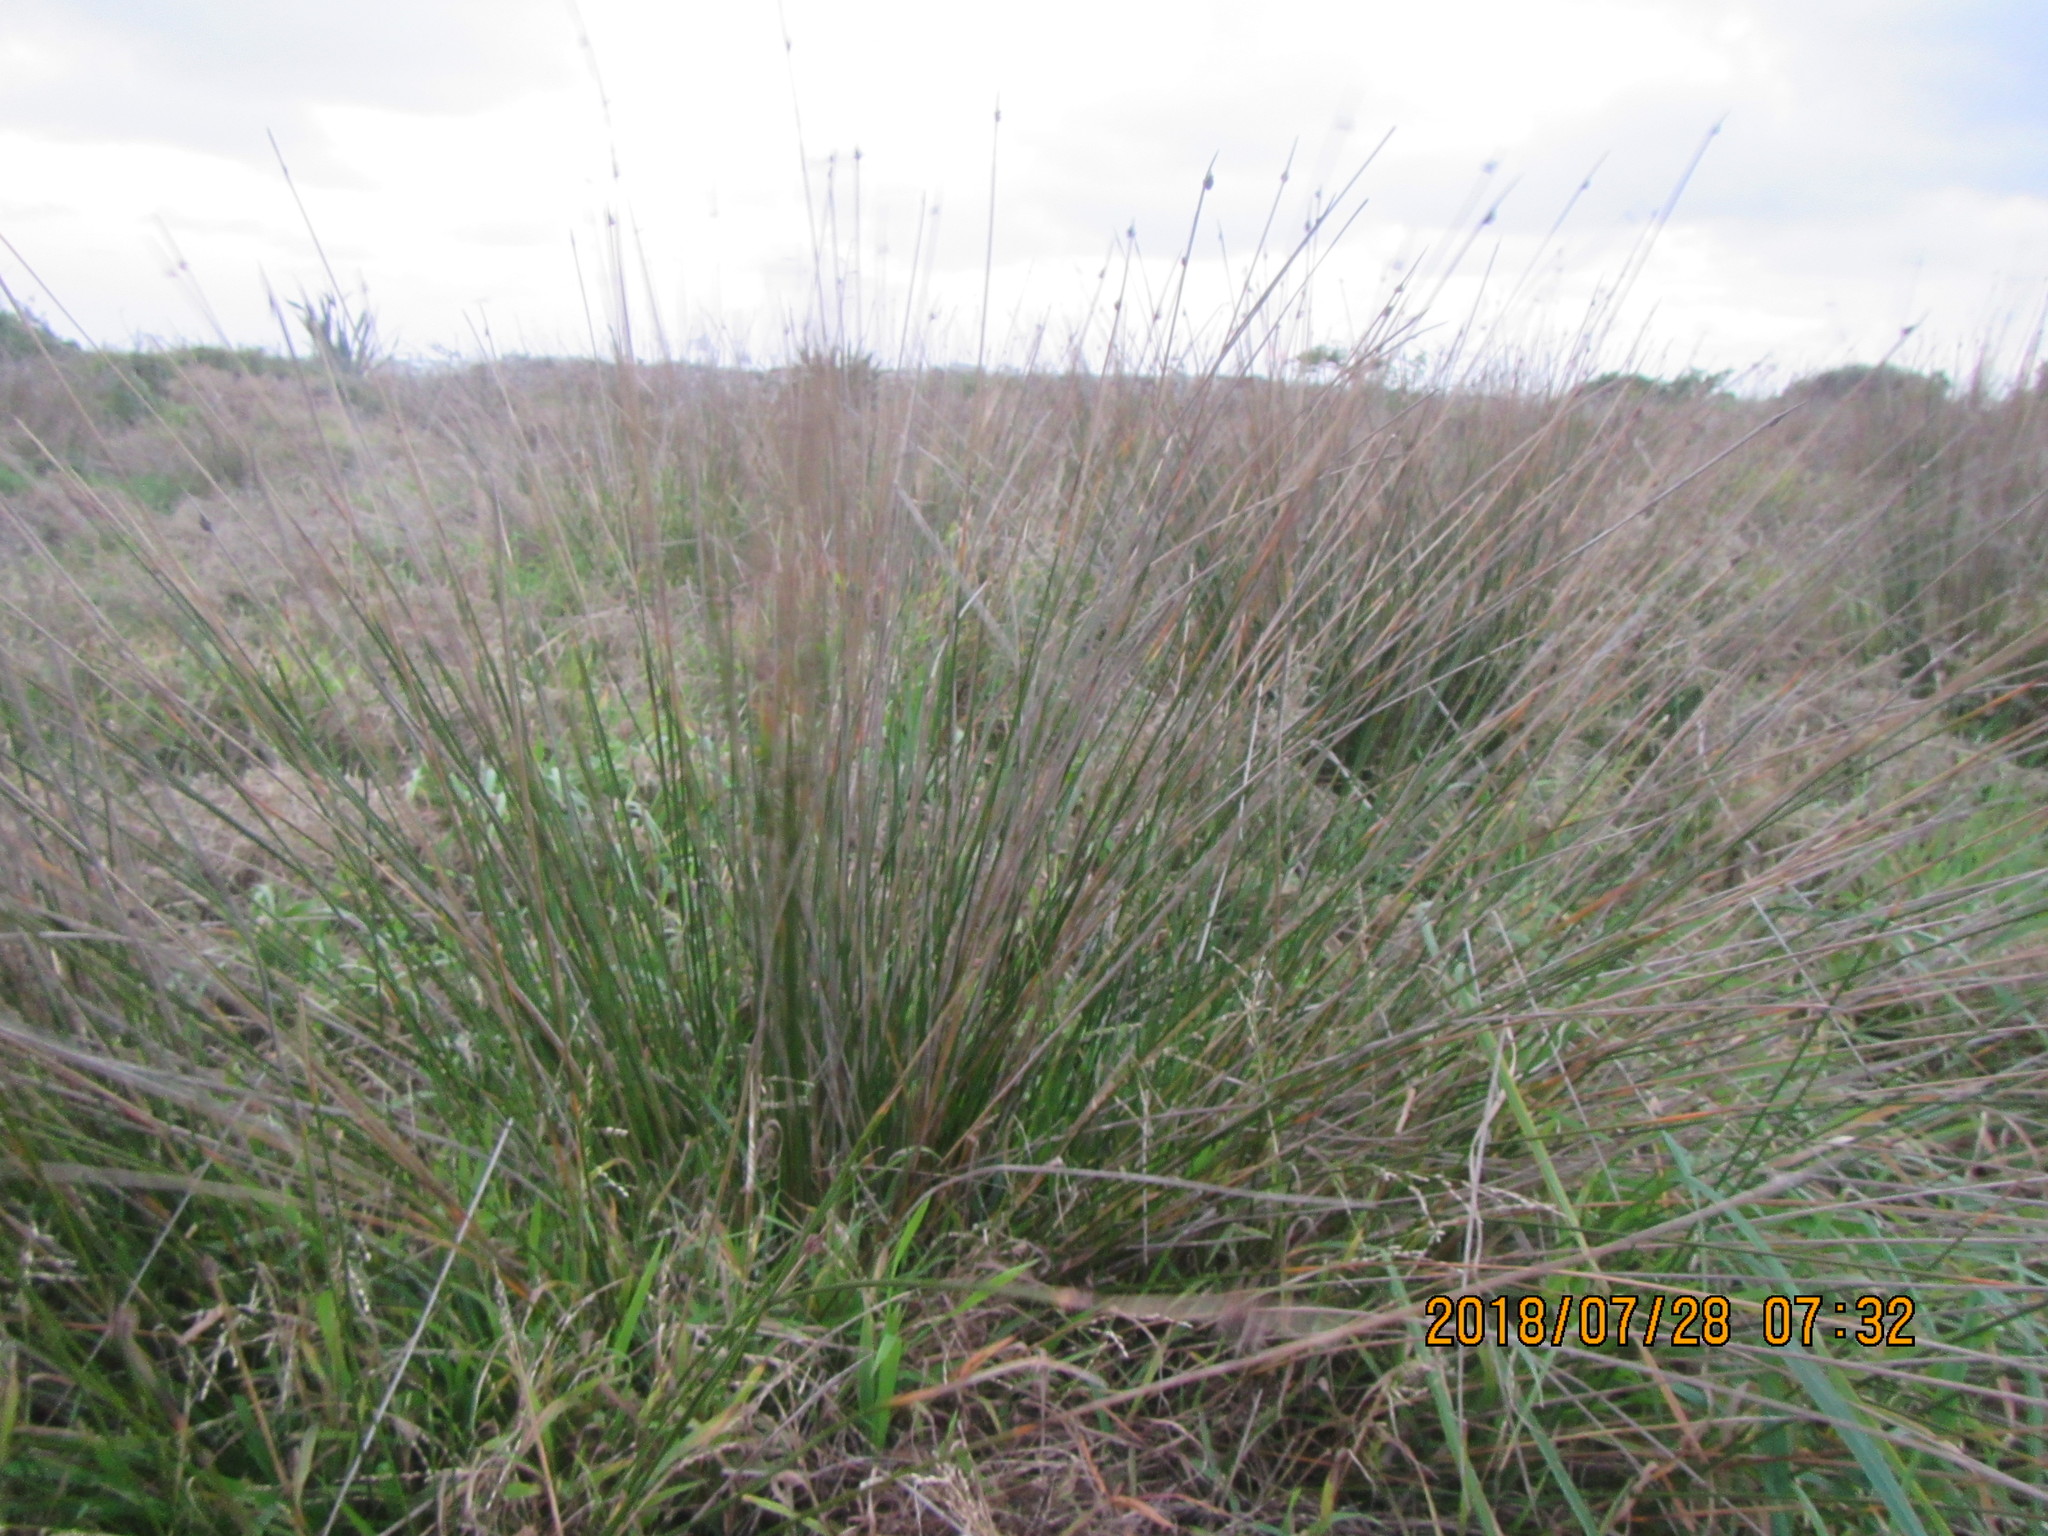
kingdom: Plantae
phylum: Tracheophyta
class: Liliopsida
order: Poales
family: Cyperaceae
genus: Ficinia
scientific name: Ficinia nodosa
